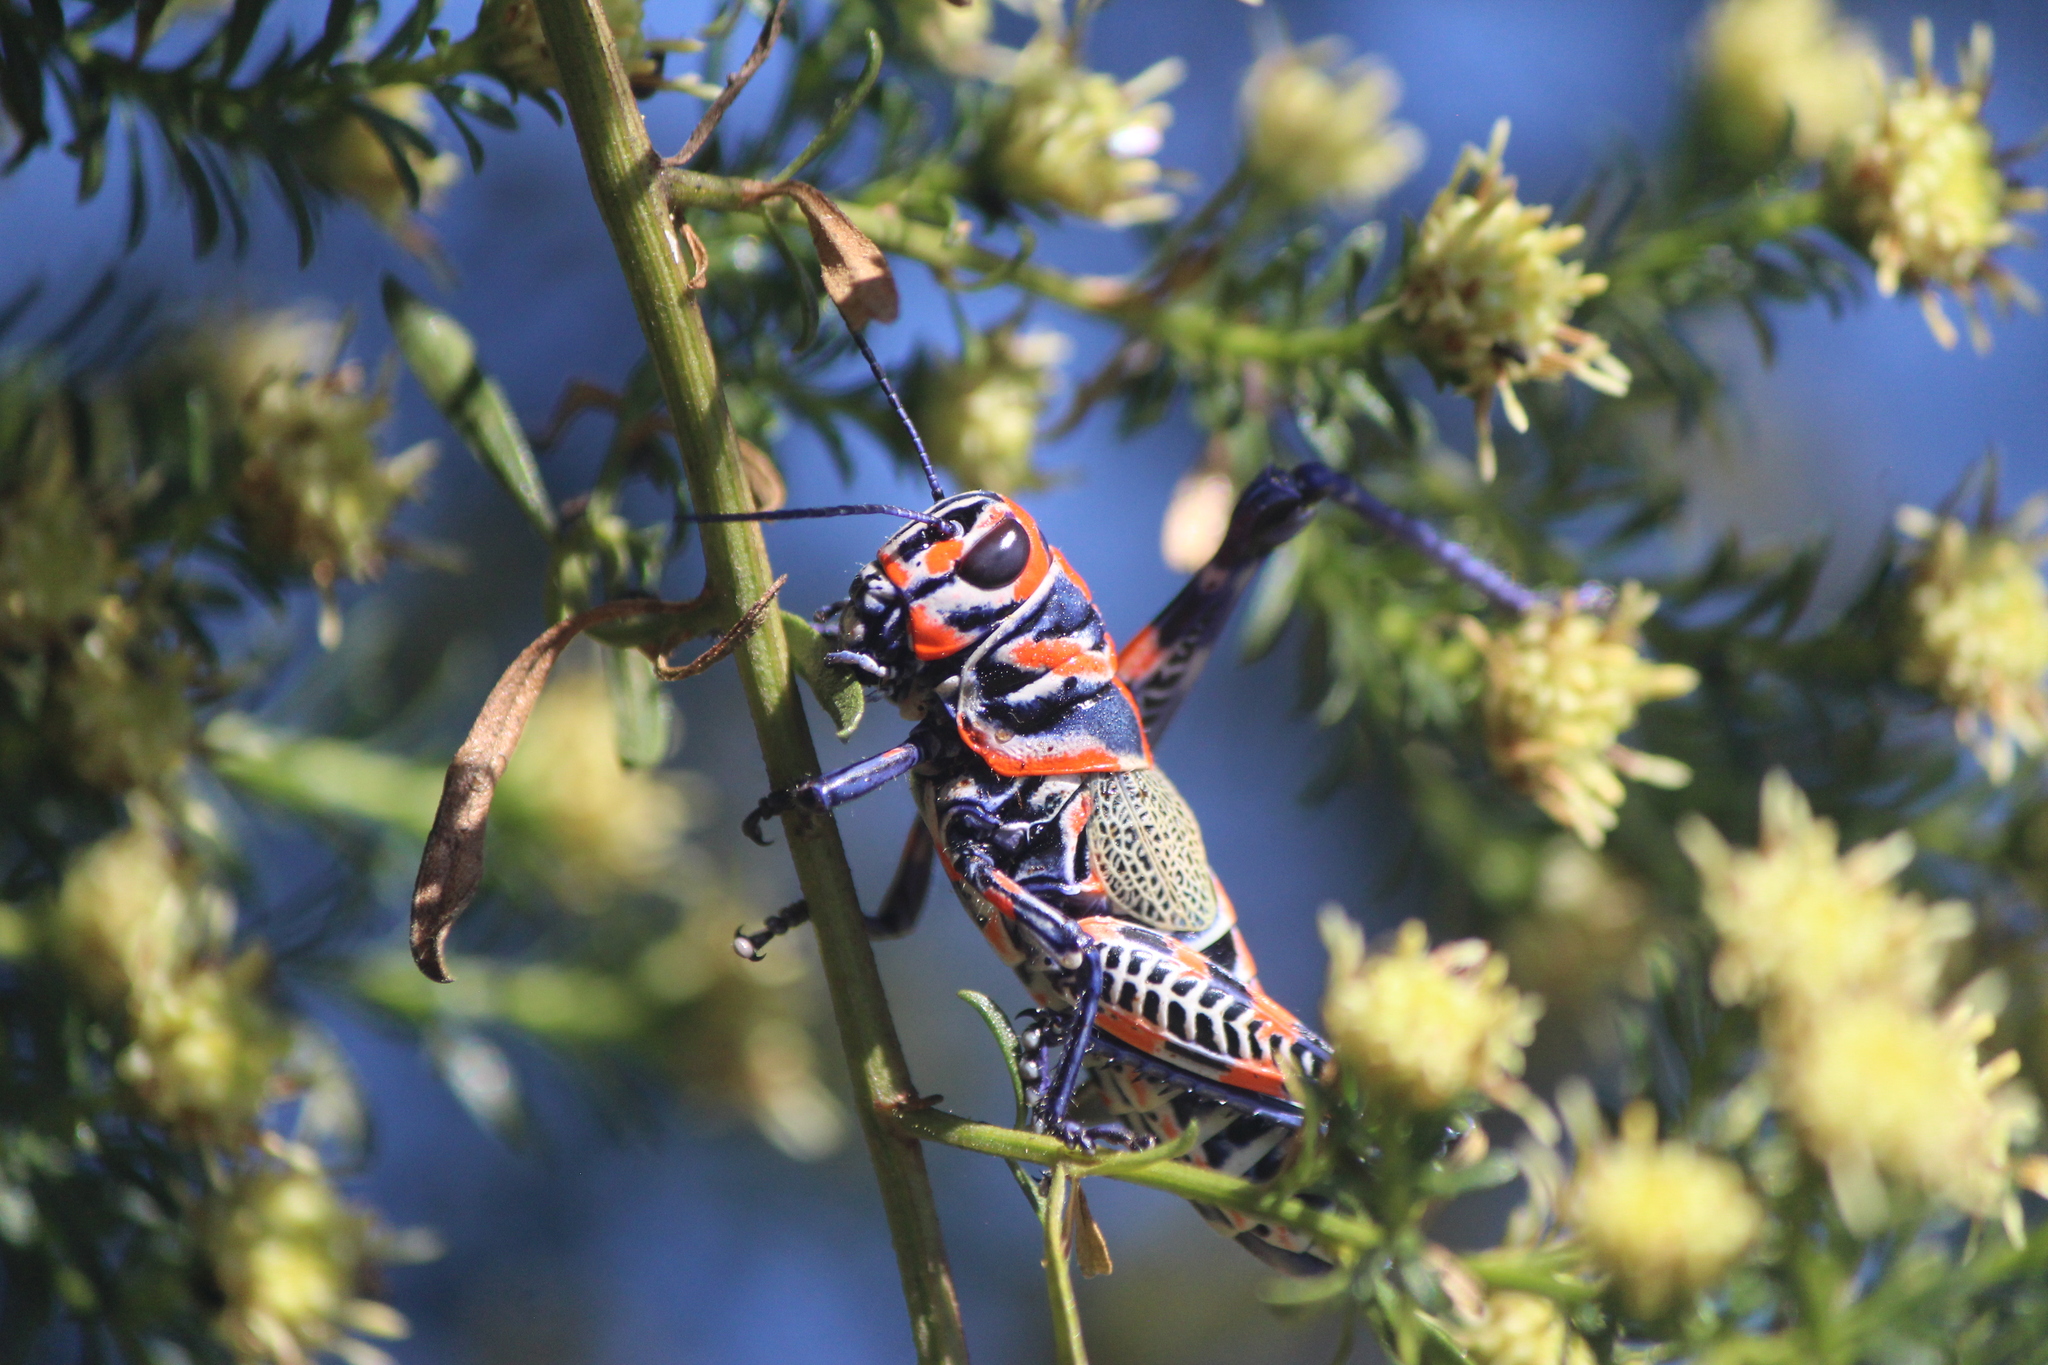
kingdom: Animalia
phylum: Arthropoda
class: Insecta
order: Orthoptera
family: Acrididae
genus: Dactylotum
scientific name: Dactylotum bicolor
